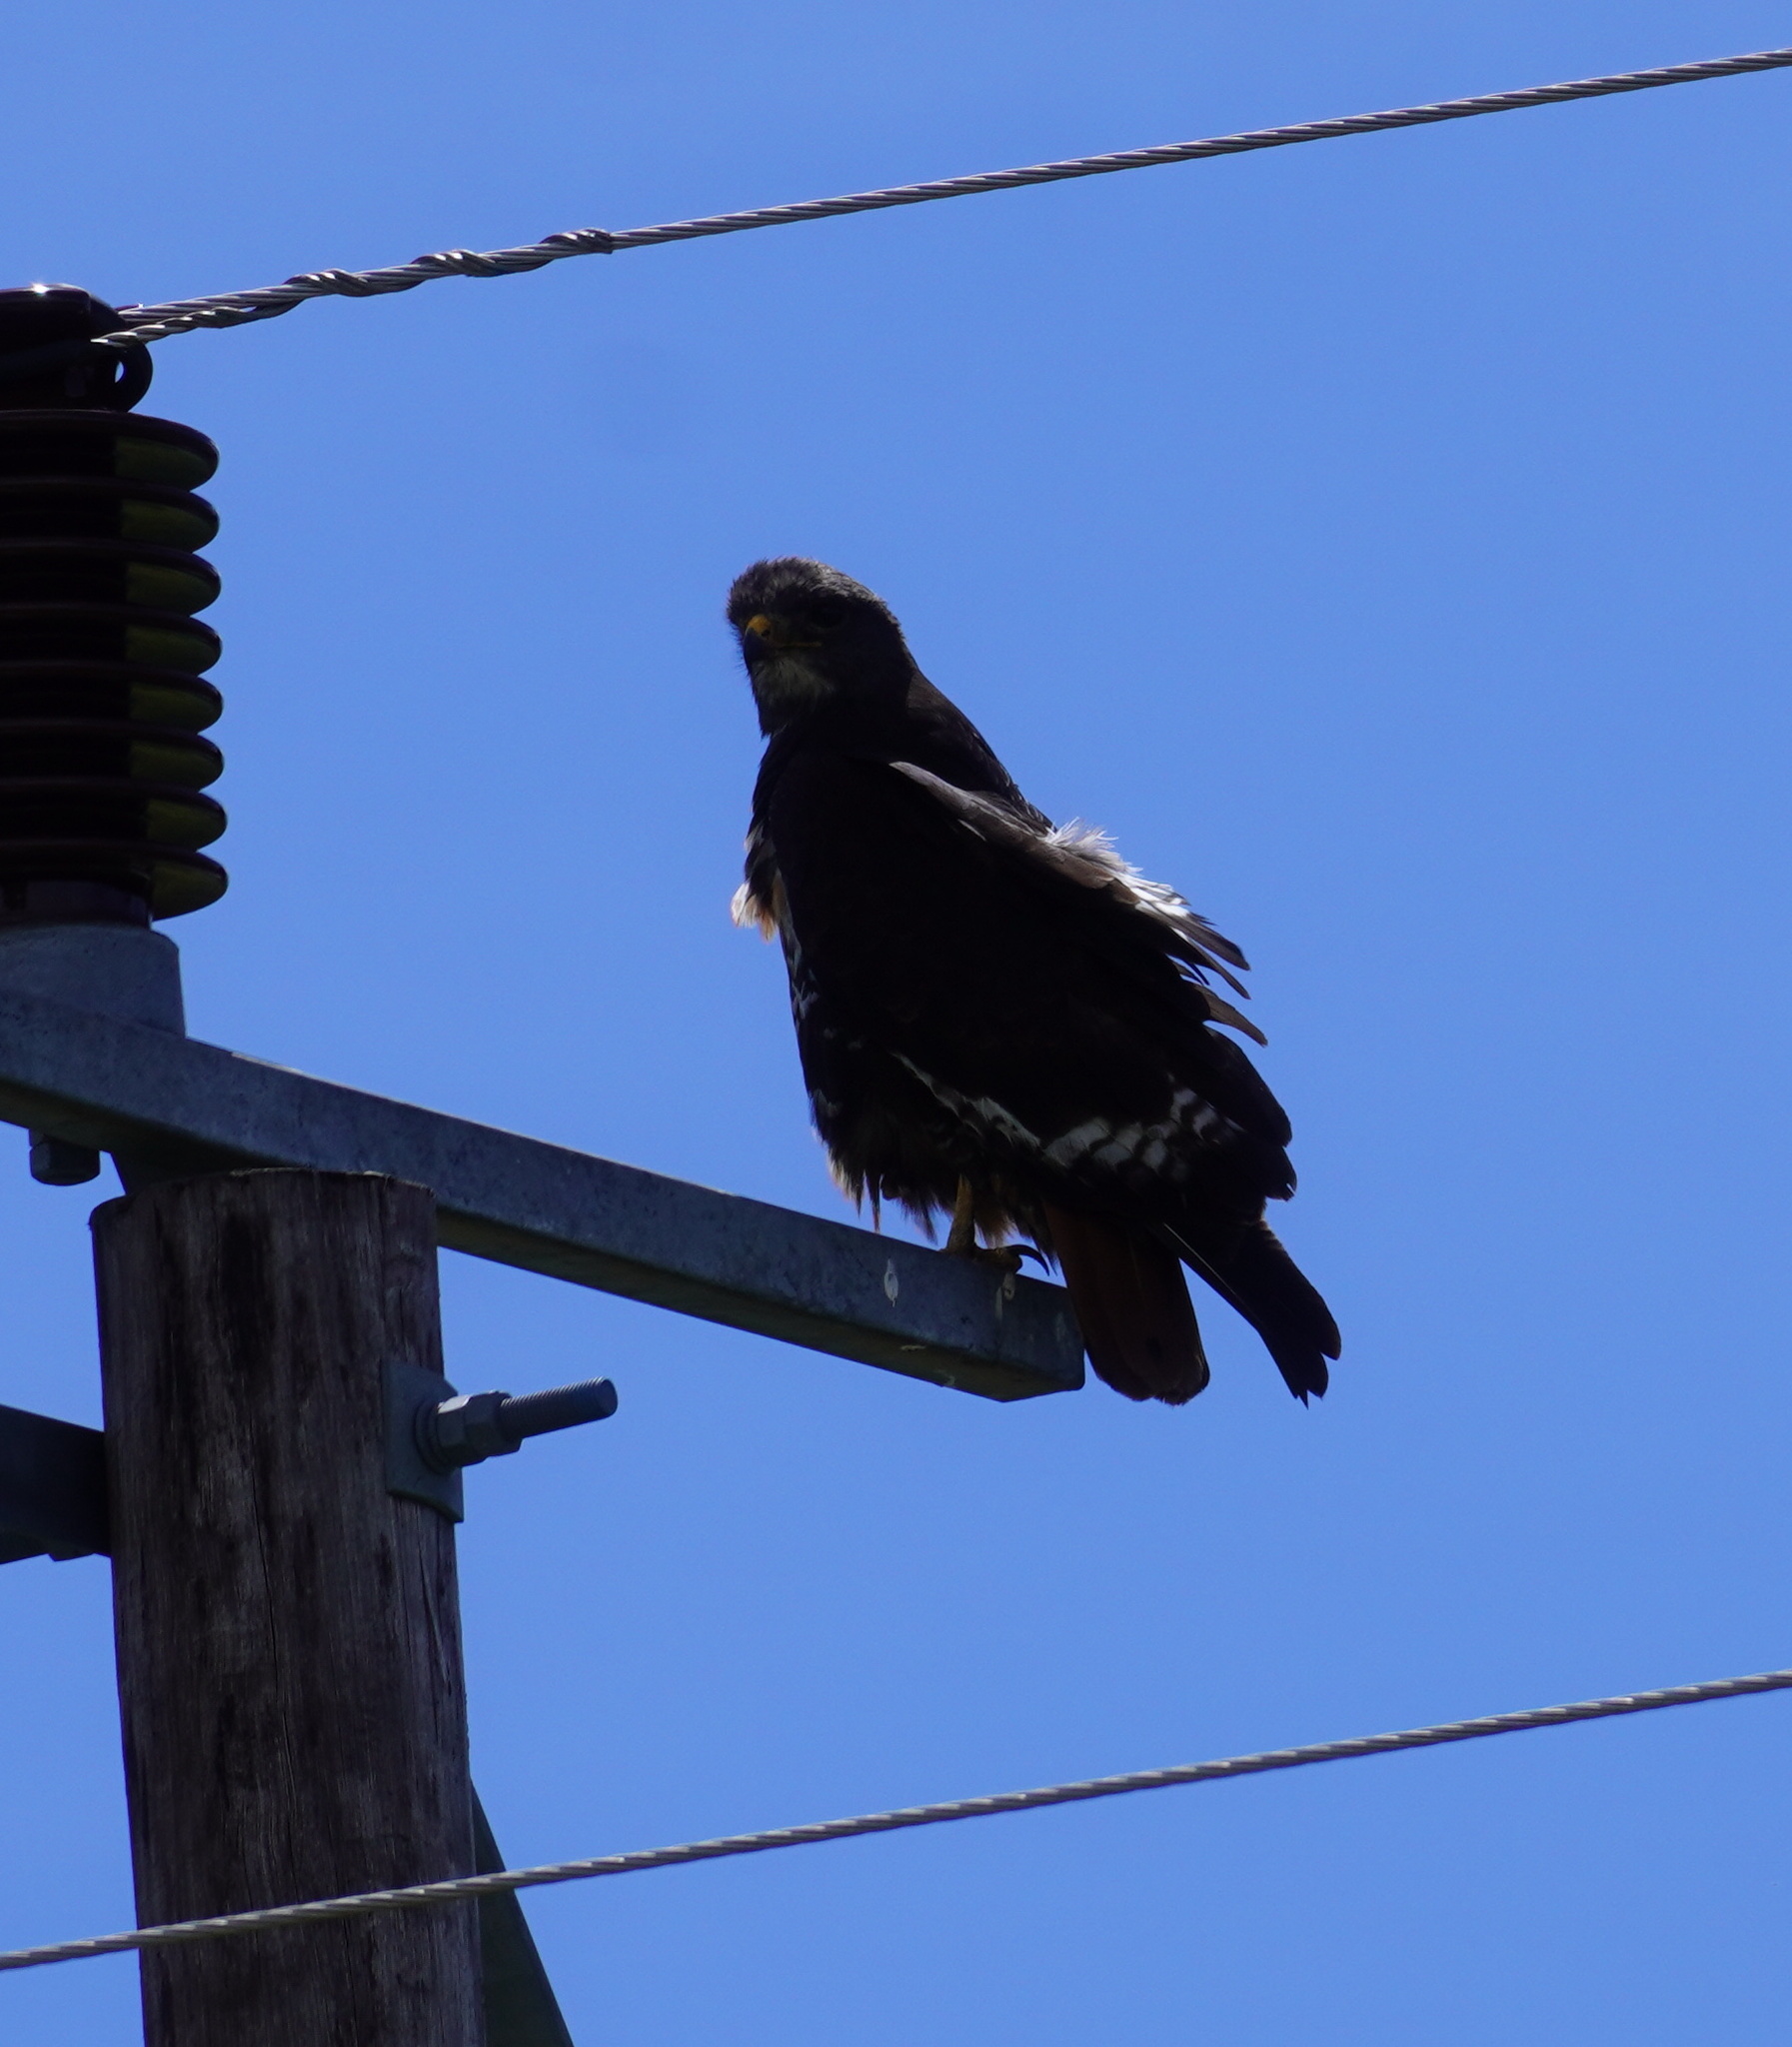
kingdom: Animalia
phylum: Chordata
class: Aves
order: Accipitriformes
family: Accipitridae
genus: Buteo
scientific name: Buteo rufofuscus
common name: Jackal buzzard
